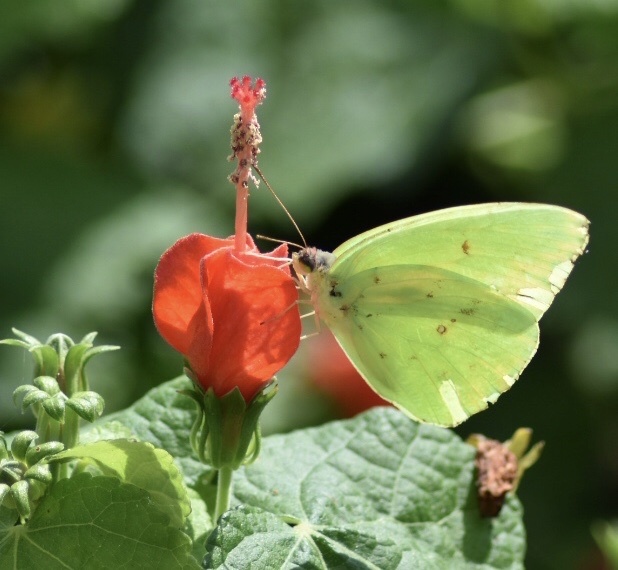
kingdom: Animalia
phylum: Arthropoda
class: Insecta
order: Lepidoptera
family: Pieridae
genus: Phoebis
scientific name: Phoebis sennae
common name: Cloudless sulphur
